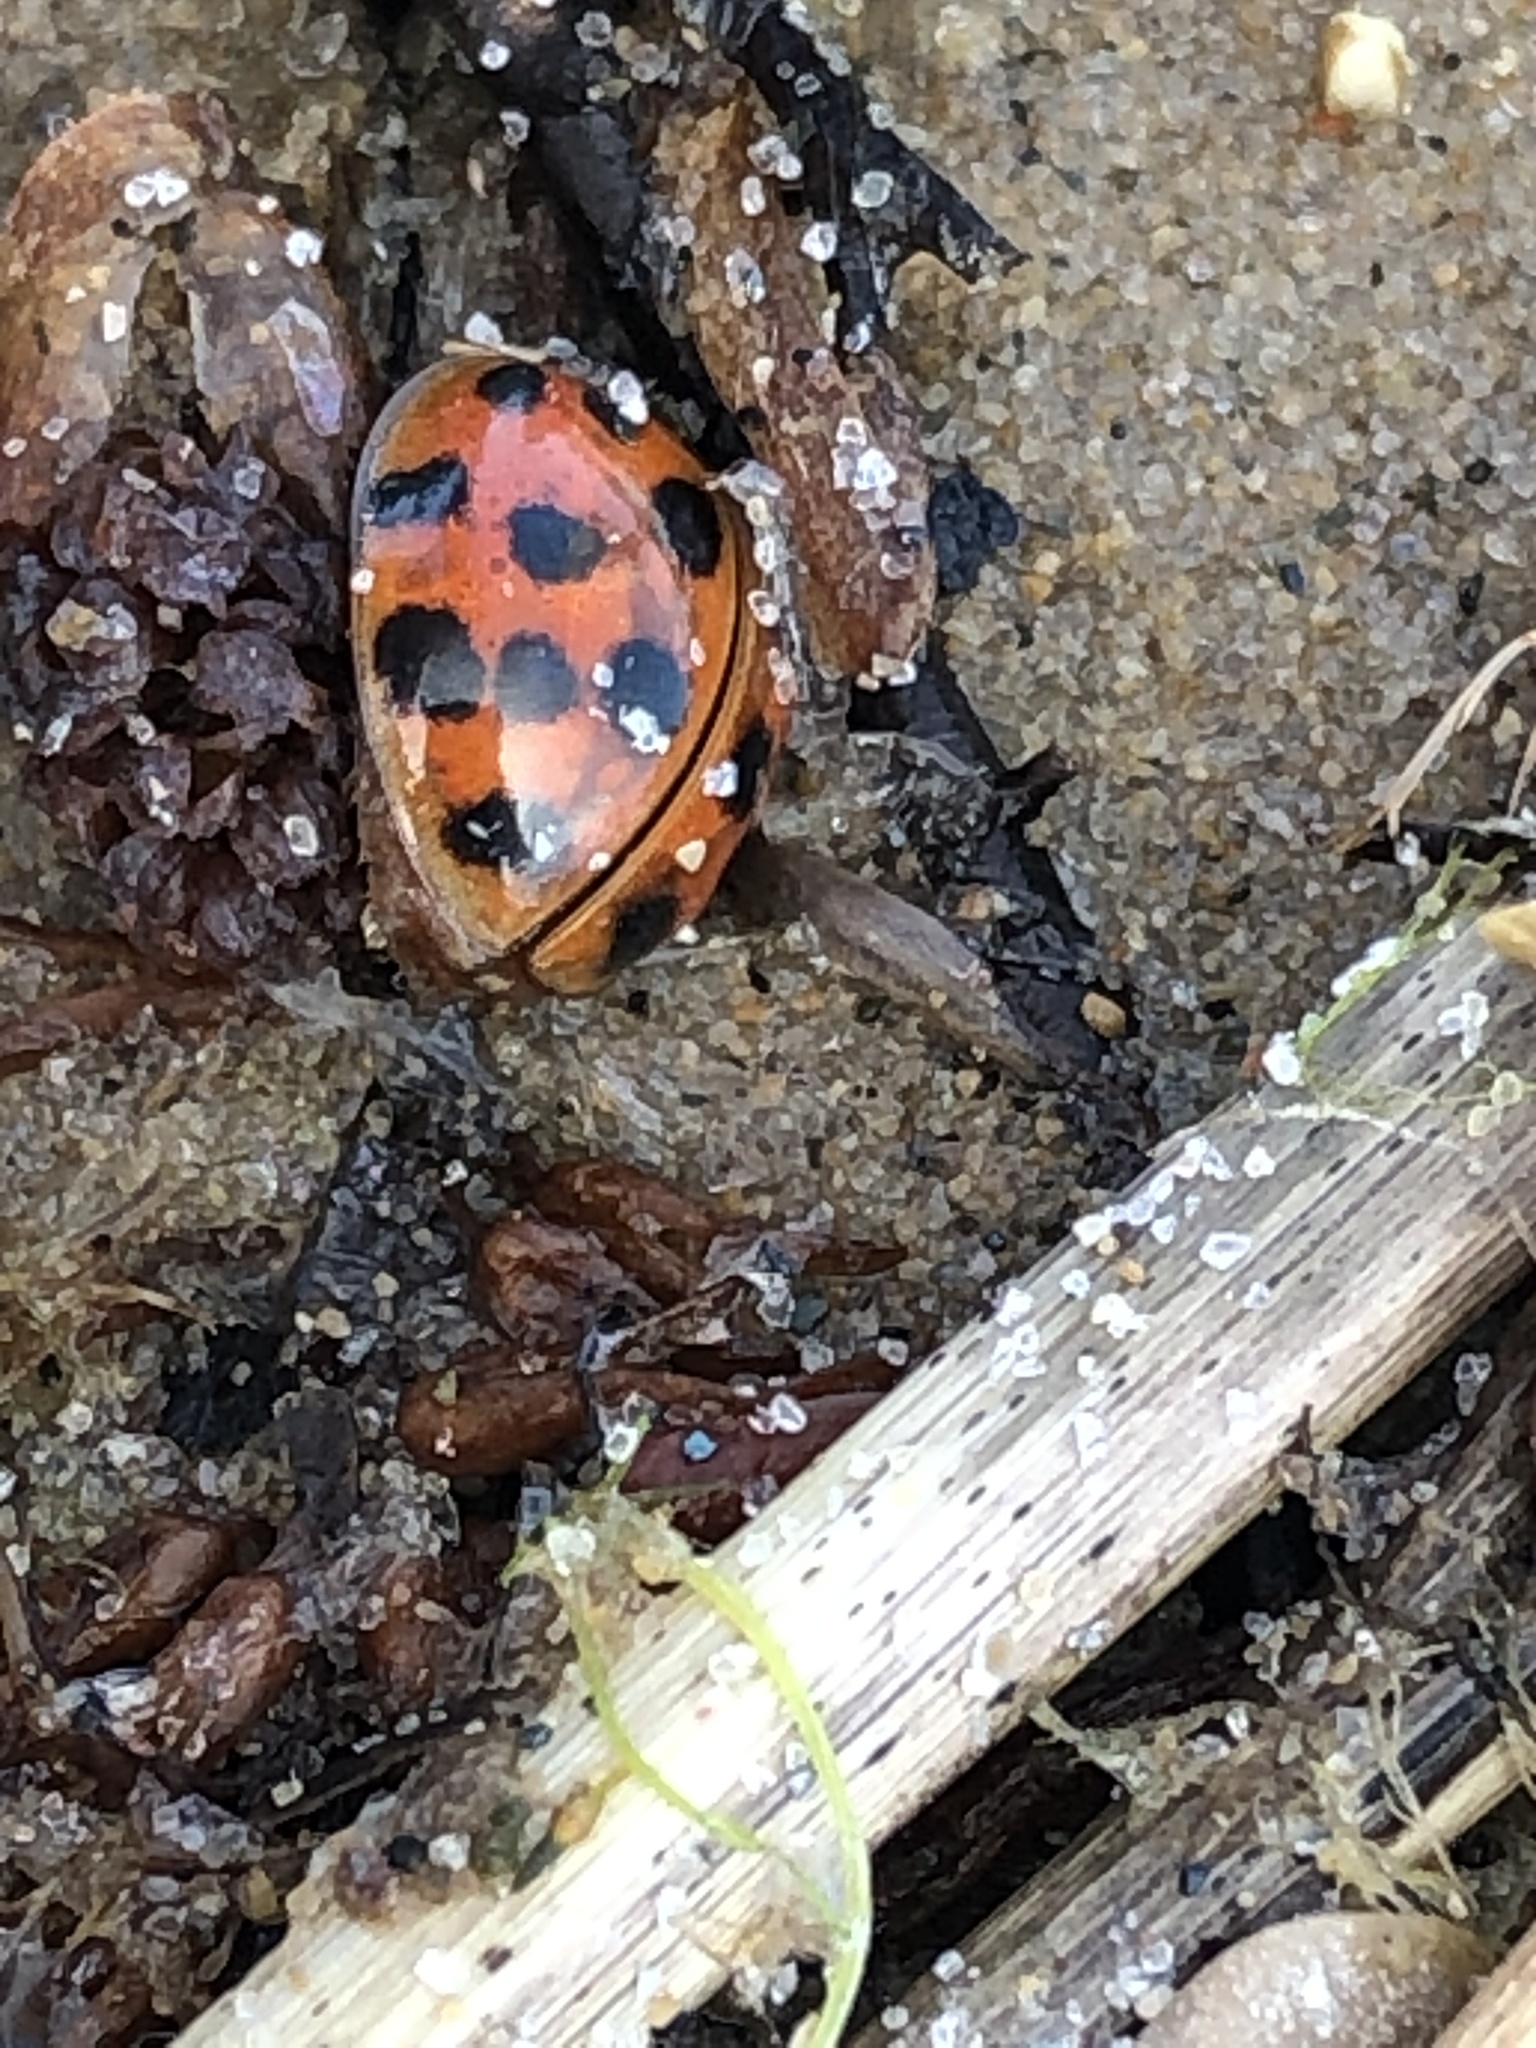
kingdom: Animalia
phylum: Arthropoda
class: Insecta
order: Coleoptera
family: Coccinellidae
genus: Harmonia
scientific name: Harmonia axyridis
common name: Harlequin ladybird
